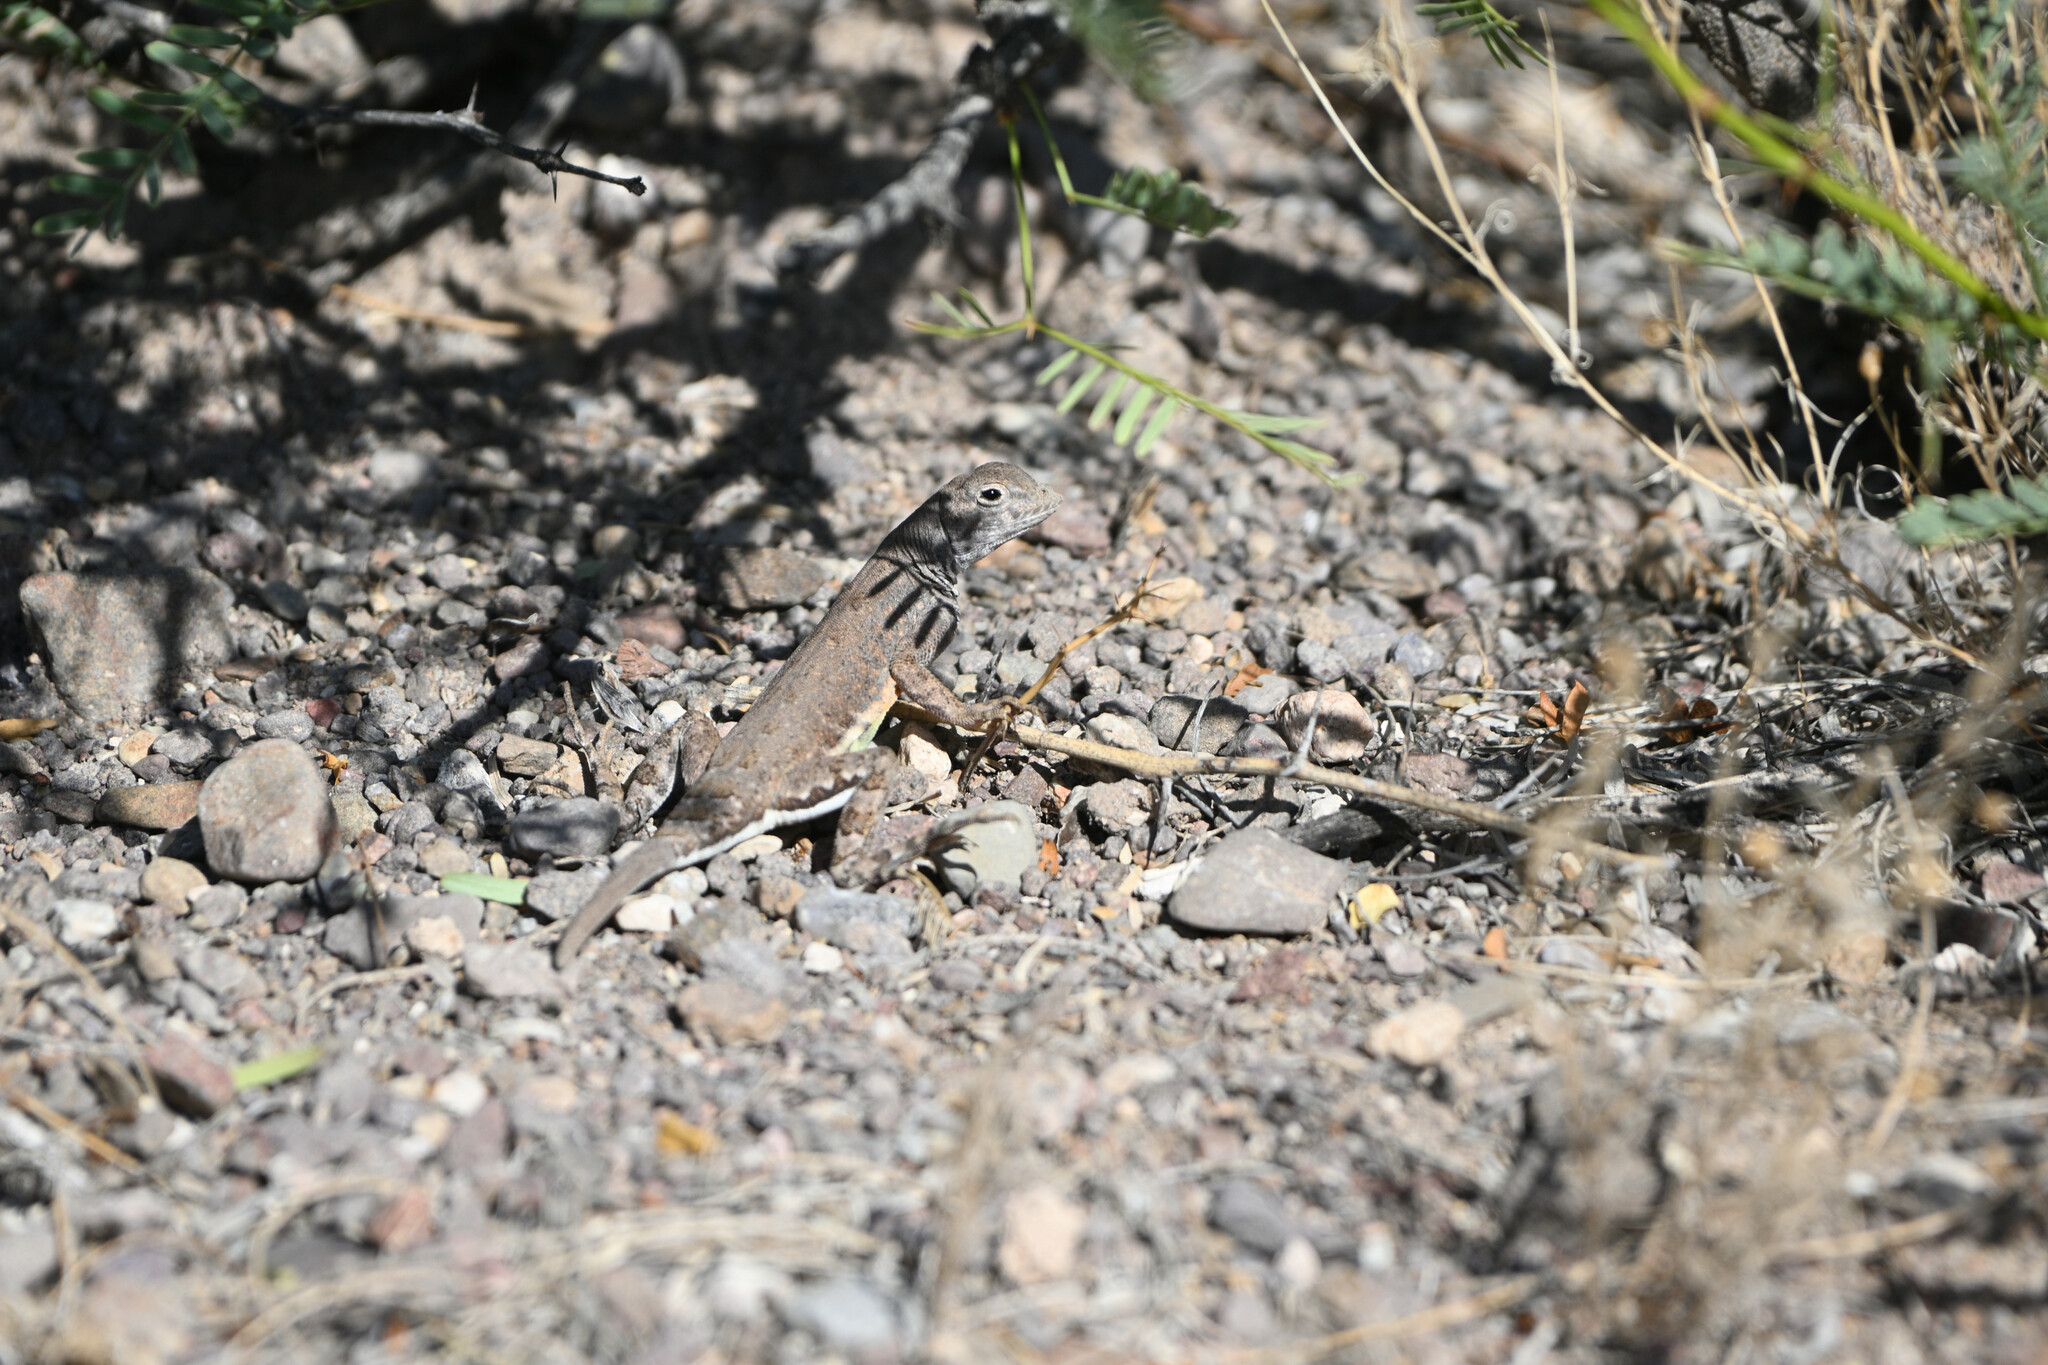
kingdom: Animalia
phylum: Chordata
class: Squamata
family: Phrynosomatidae
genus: Cophosaurus
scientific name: Cophosaurus texanus
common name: Greater earless lizard
